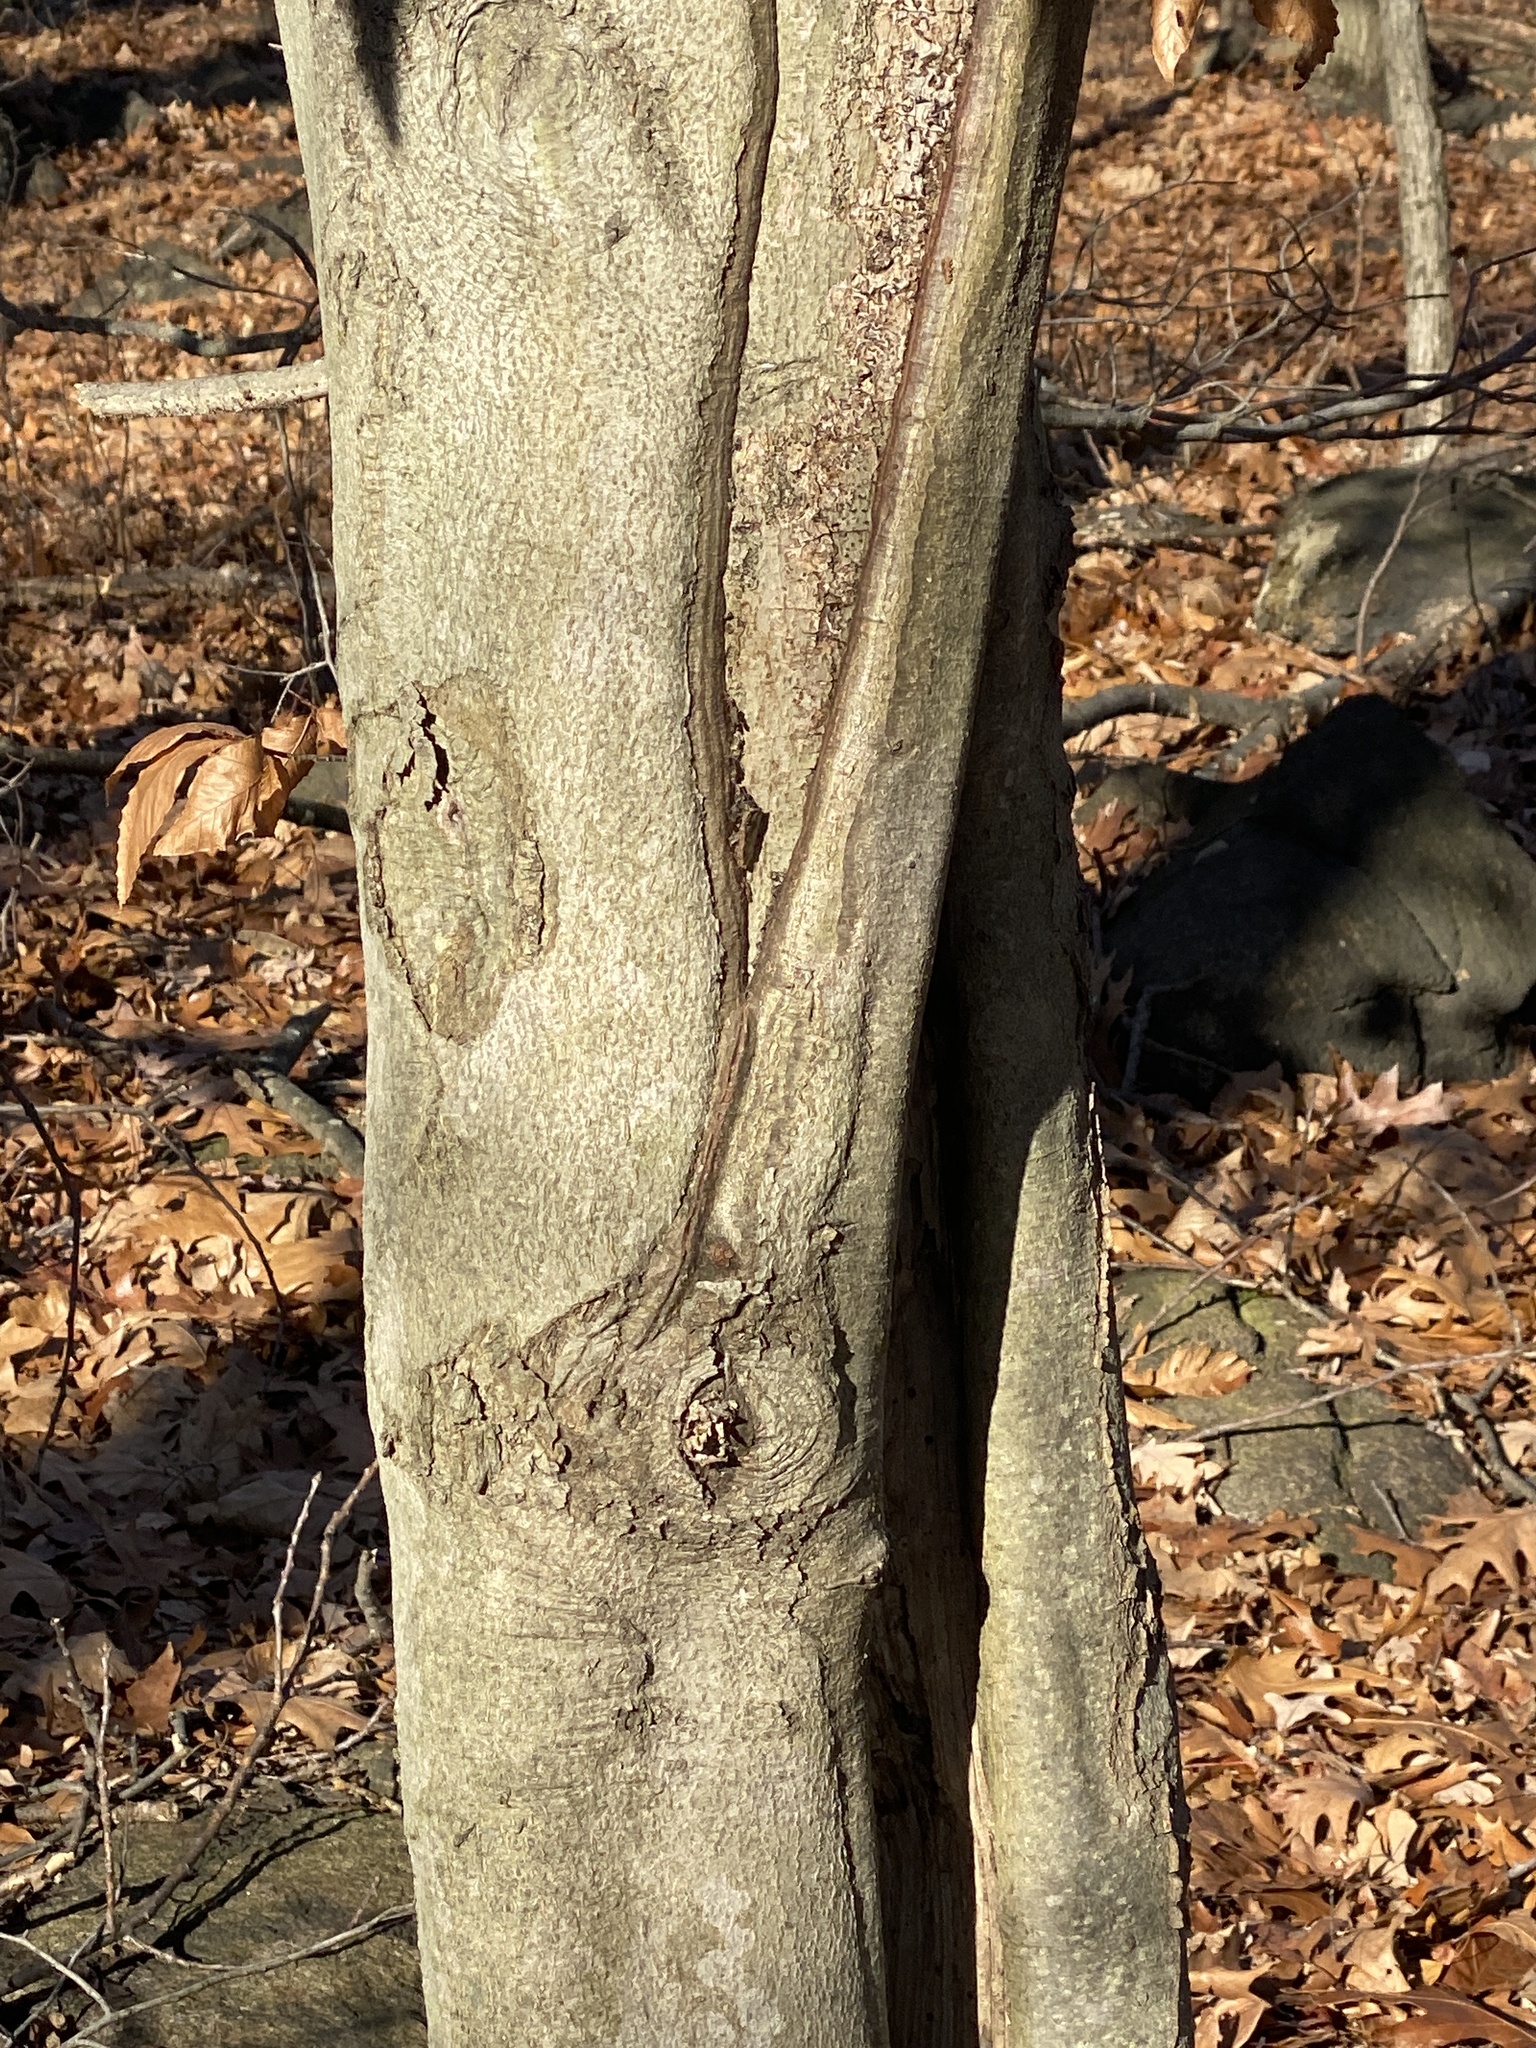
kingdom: Plantae
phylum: Tracheophyta
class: Magnoliopsida
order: Fagales
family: Fagaceae
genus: Fagus
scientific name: Fagus grandifolia
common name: American beech
